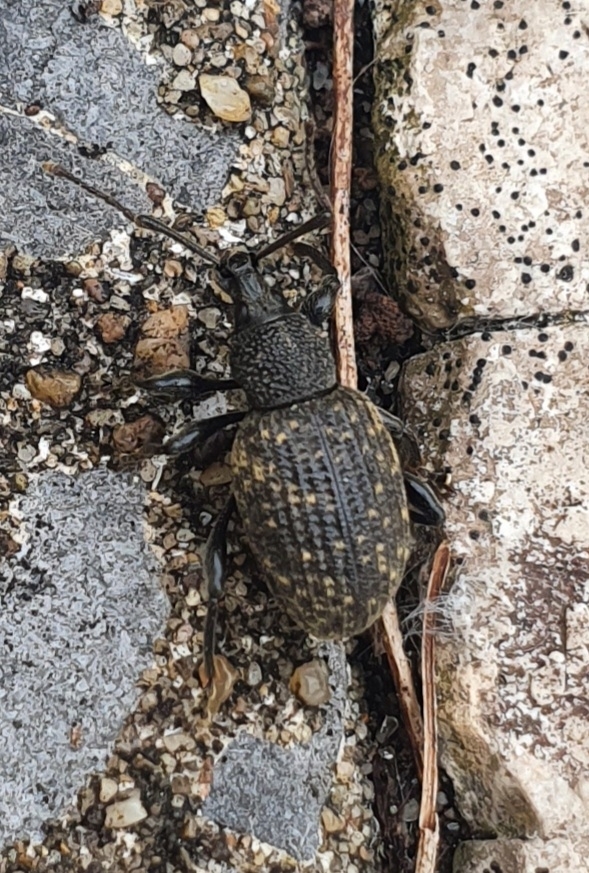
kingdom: Animalia
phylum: Arthropoda
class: Insecta
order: Coleoptera
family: Curculionidae
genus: Otiorhynchus
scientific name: Otiorhynchus sulcatus
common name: Black vine weevil
